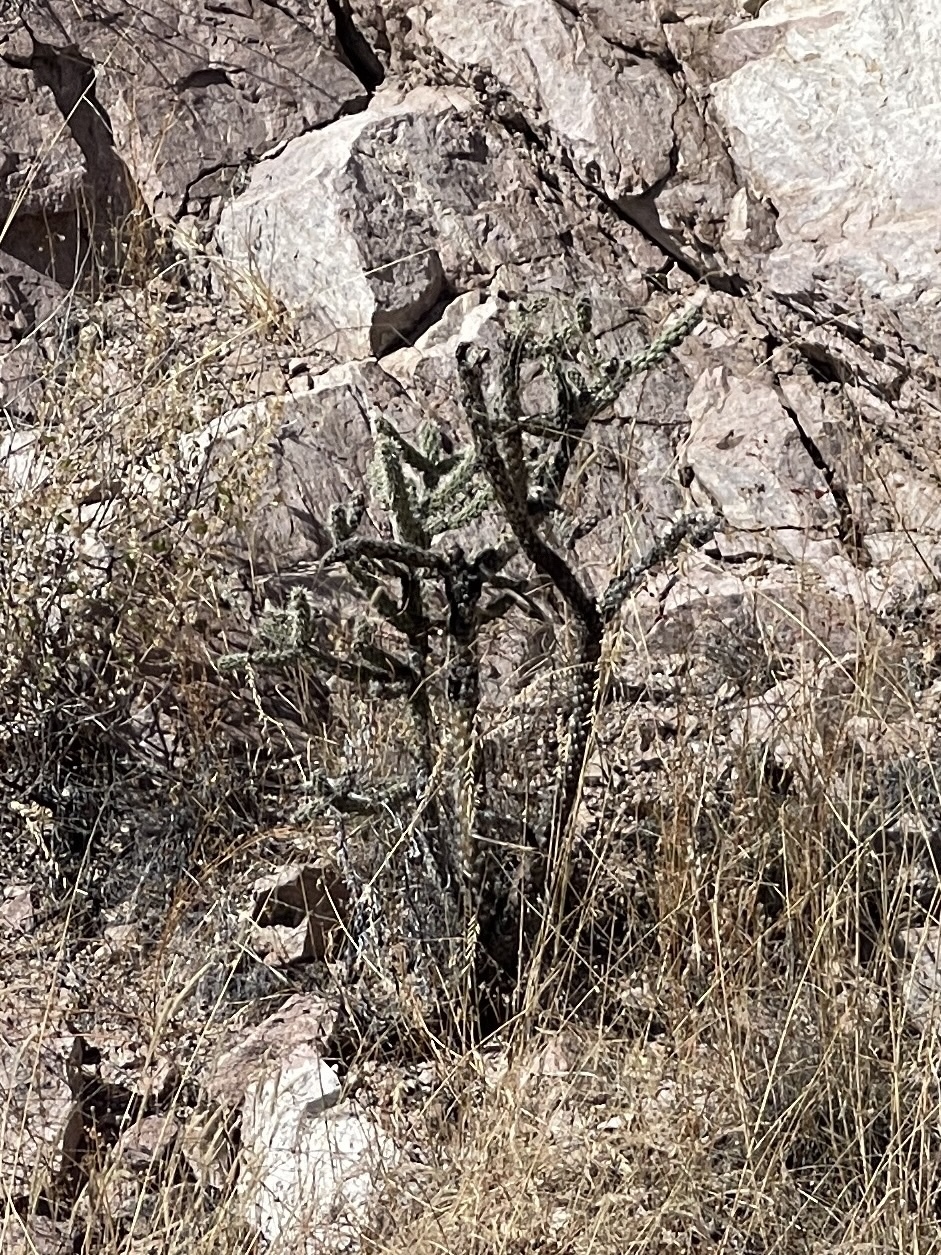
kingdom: Plantae
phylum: Tracheophyta
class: Magnoliopsida
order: Caryophyllales
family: Cactaceae
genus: Cylindropuntia
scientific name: Cylindropuntia imbricata
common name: Candelabrum cactus
